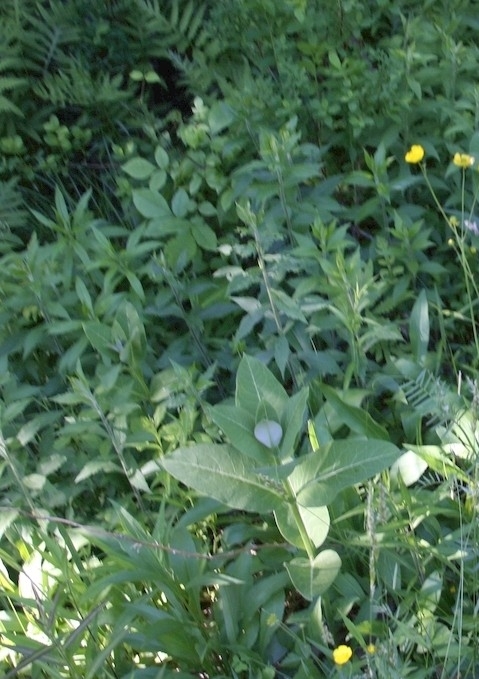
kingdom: Plantae
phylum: Tracheophyta
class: Magnoliopsida
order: Gentianales
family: Apocynaceae
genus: Asclepias
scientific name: Asclepias syriaca
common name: Common milkweed
